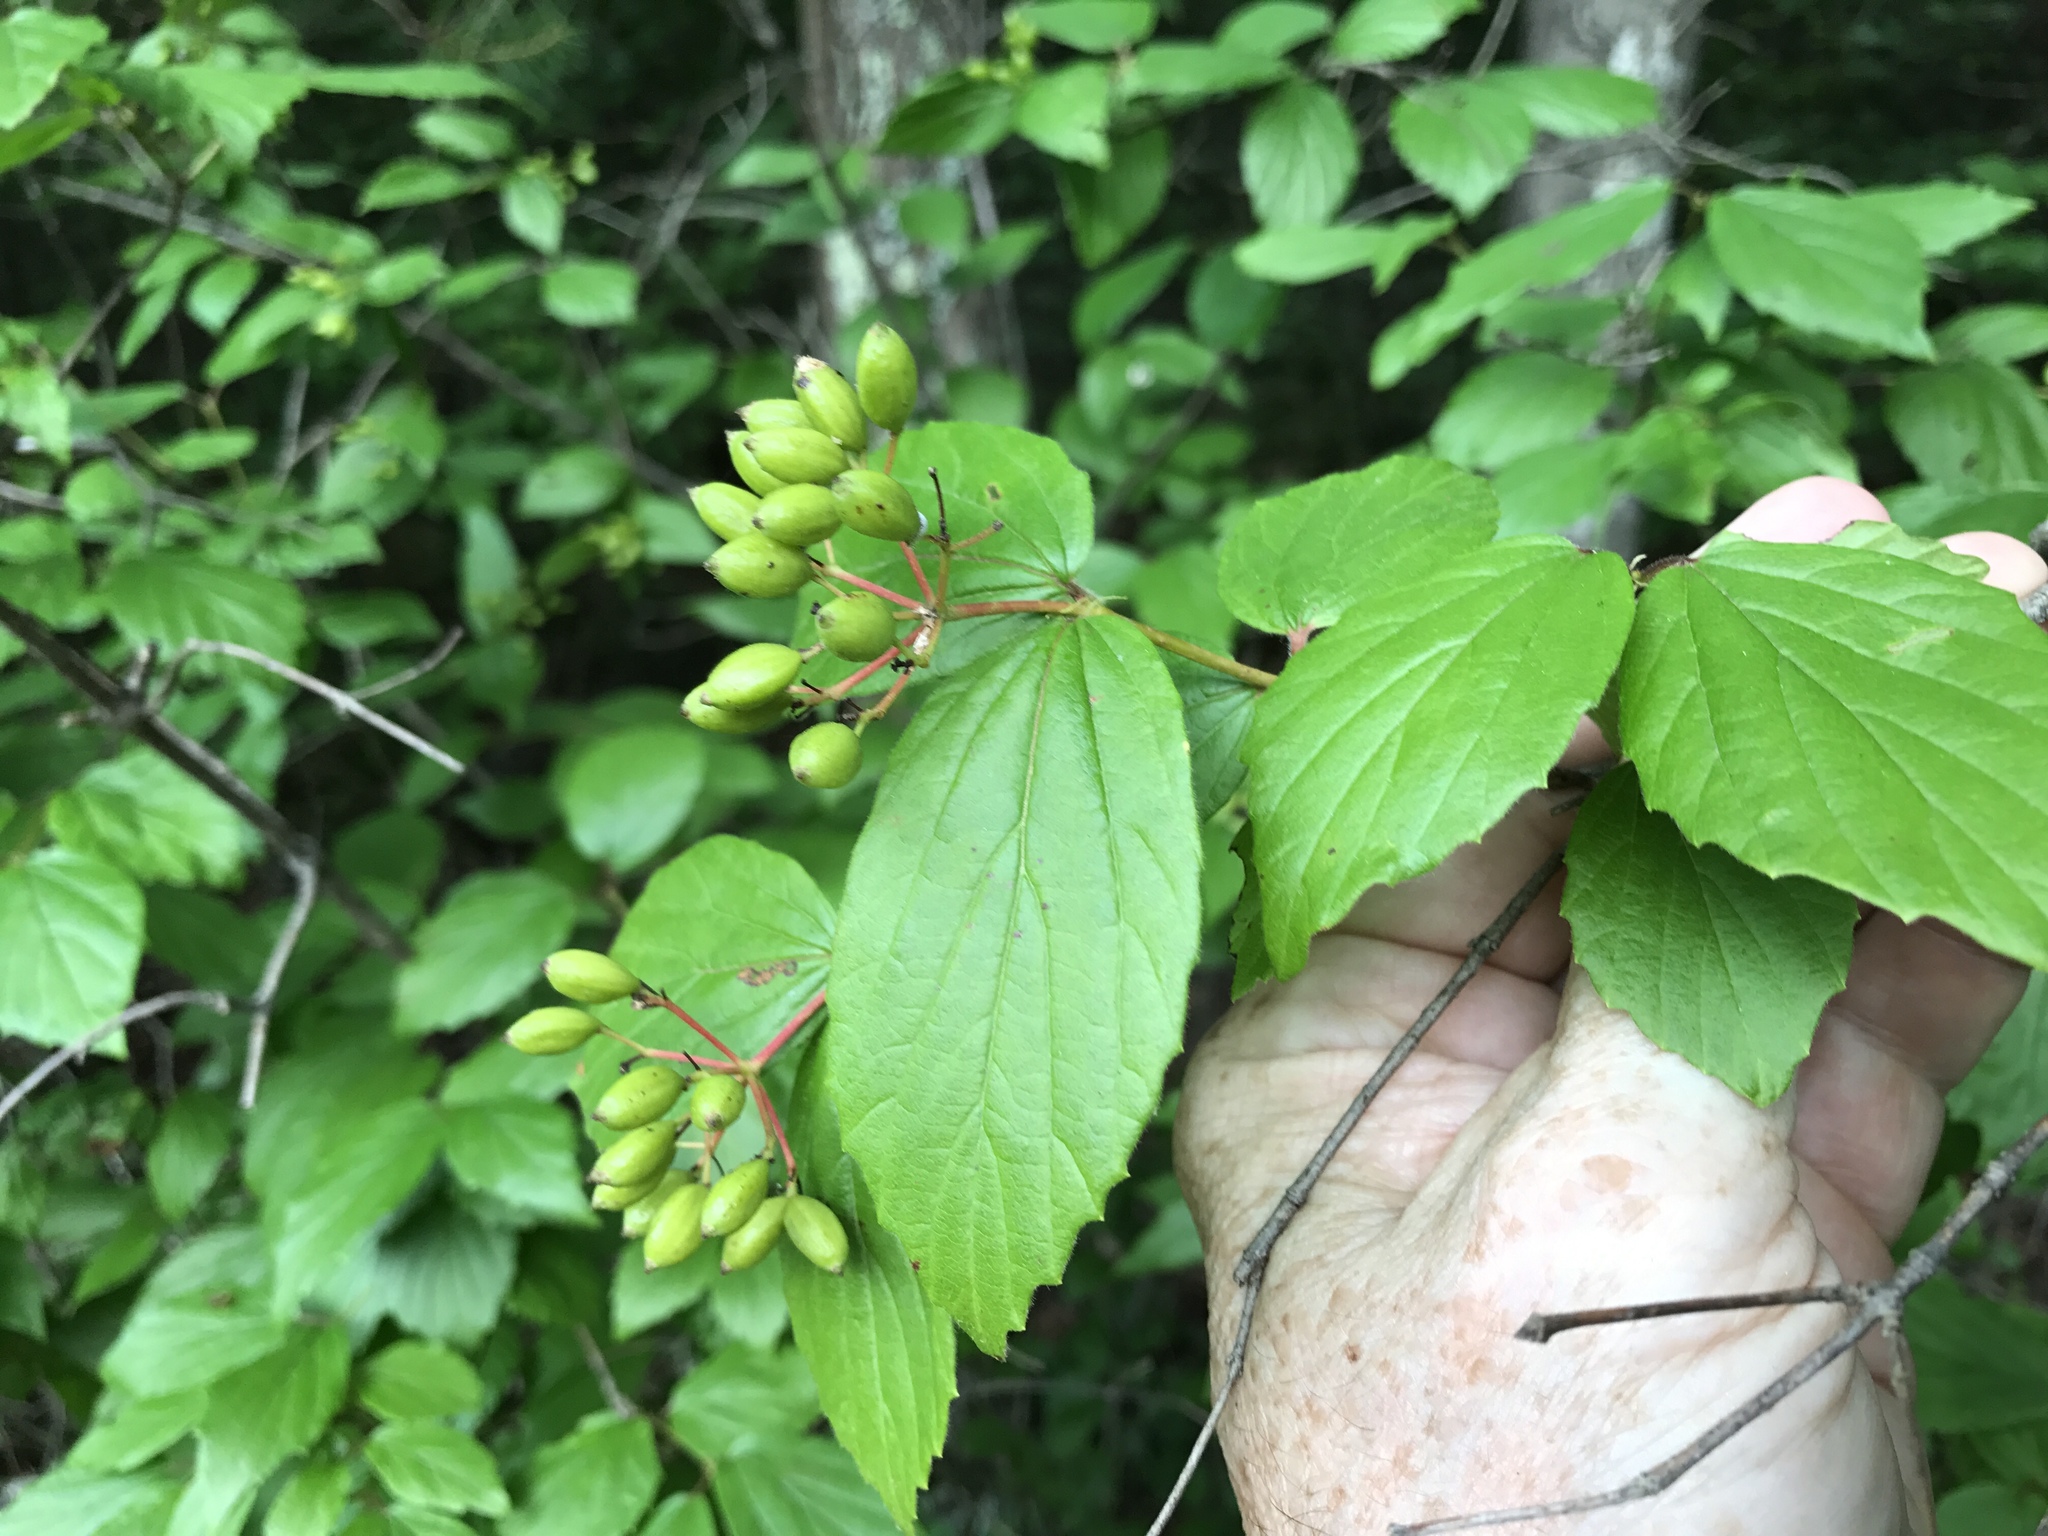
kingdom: Plantae
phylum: Tracheophyta
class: Magnoliopsida
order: Dipsacales
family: Viburnaceae
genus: Viburnum
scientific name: Viburnum rafinesqueanum
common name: Downy arrow-wood
